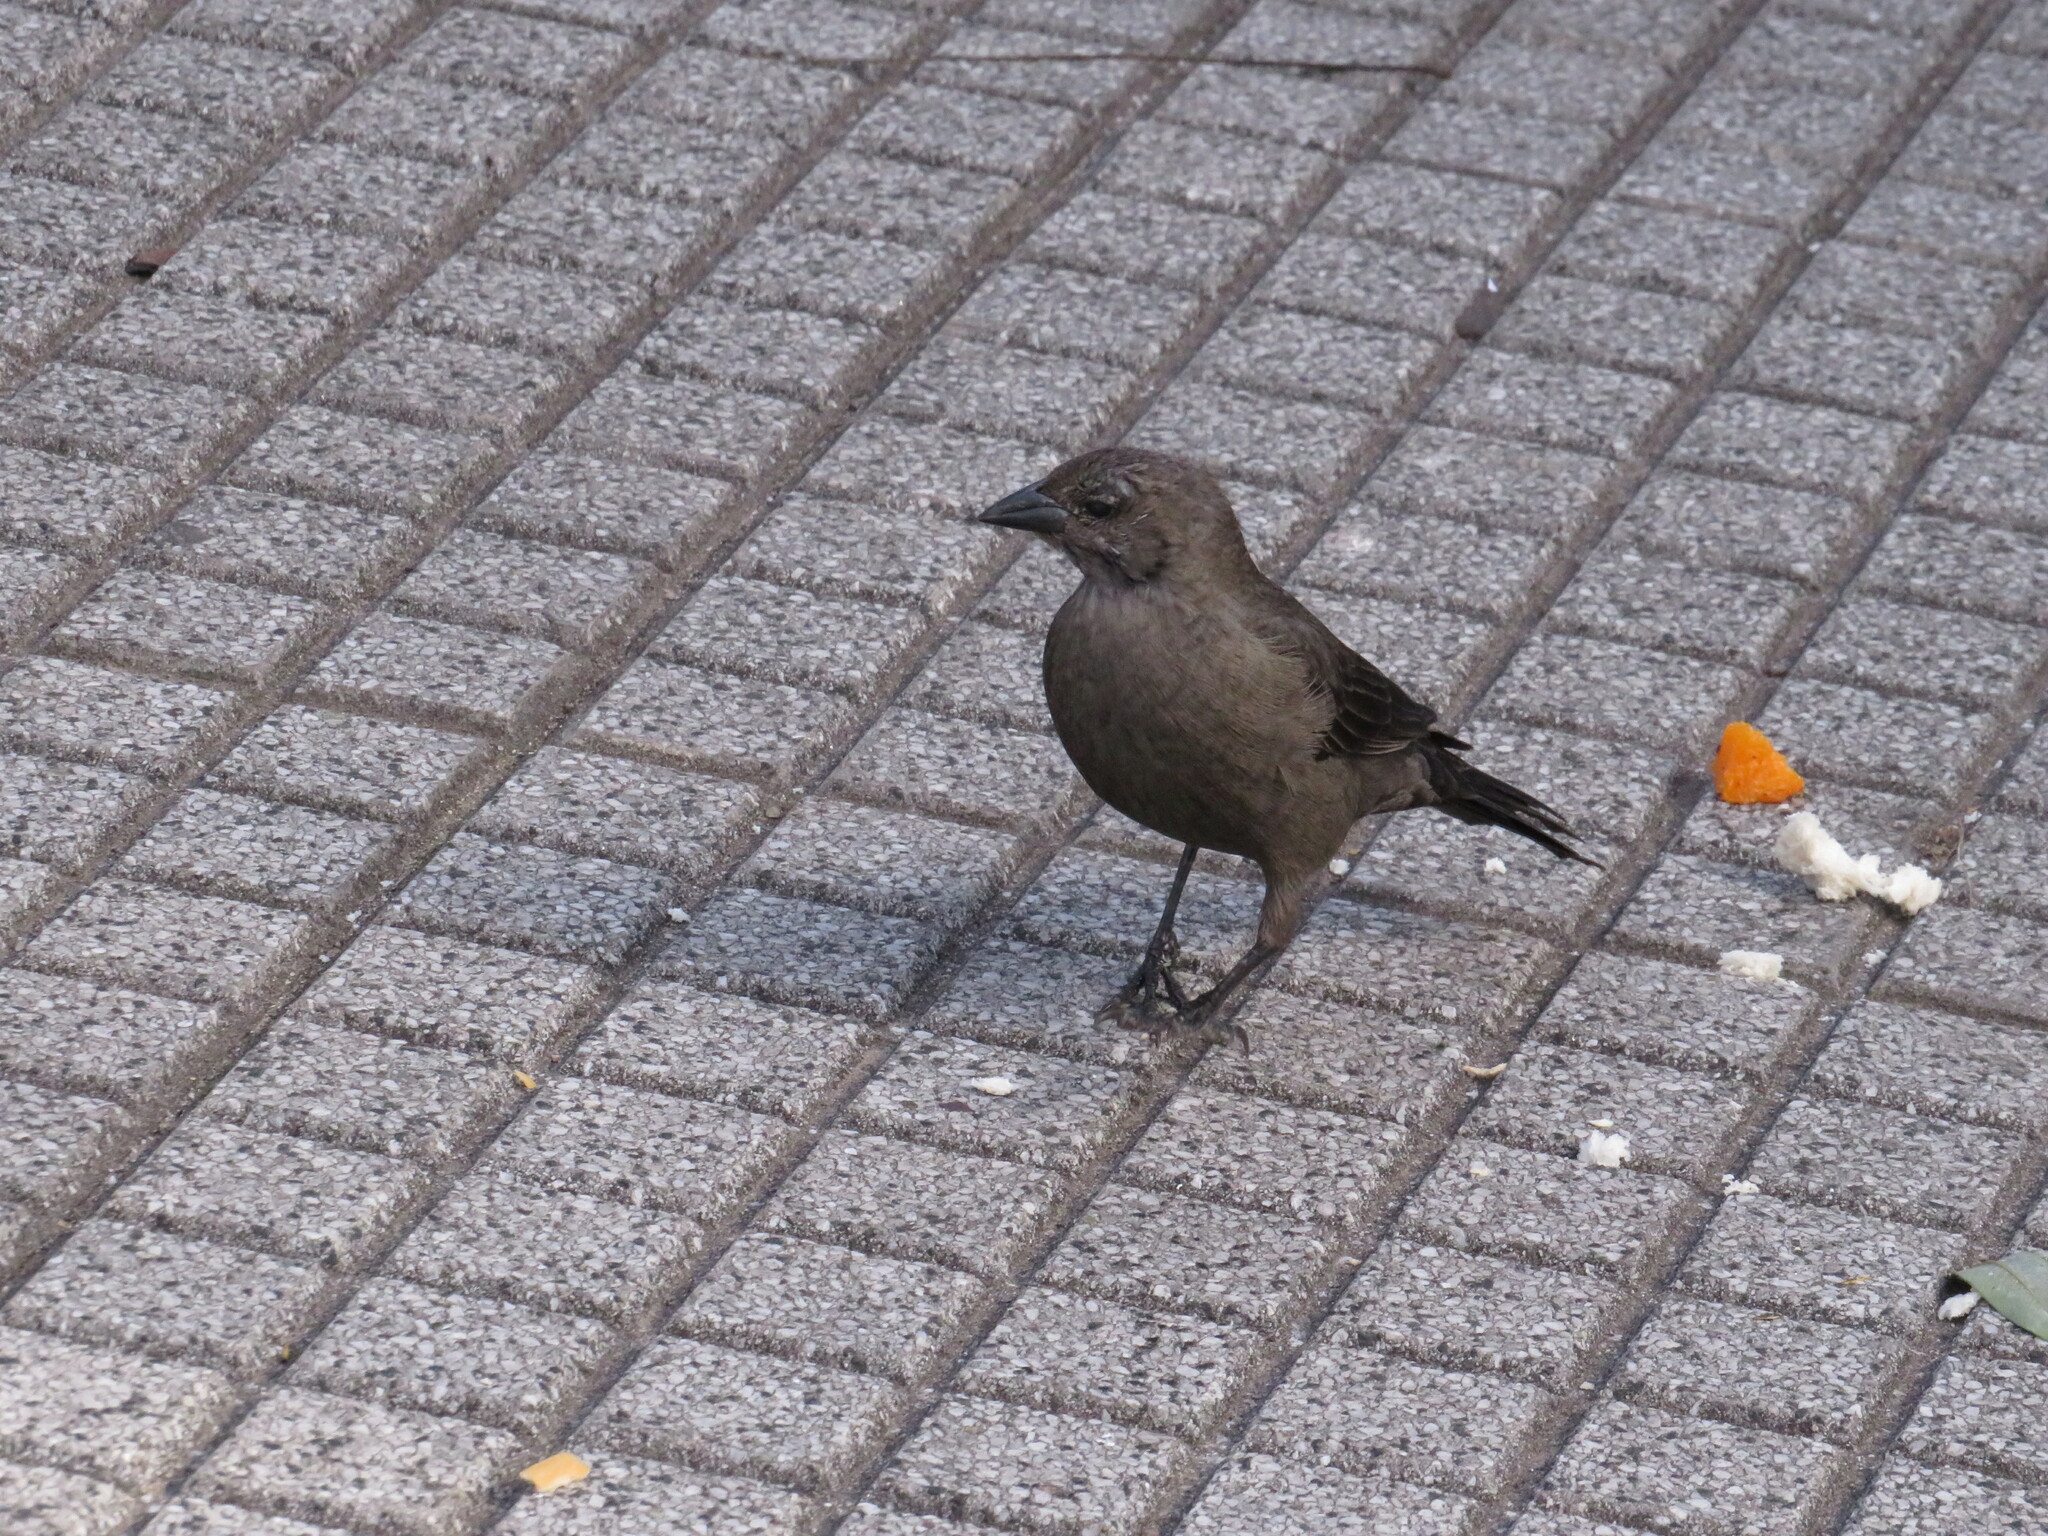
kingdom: Animalia
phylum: Chordata
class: Aves
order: Passeriformes
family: Icteridae
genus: Molothrus
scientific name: Molothrus bonariensis
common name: Shiny cowbird
